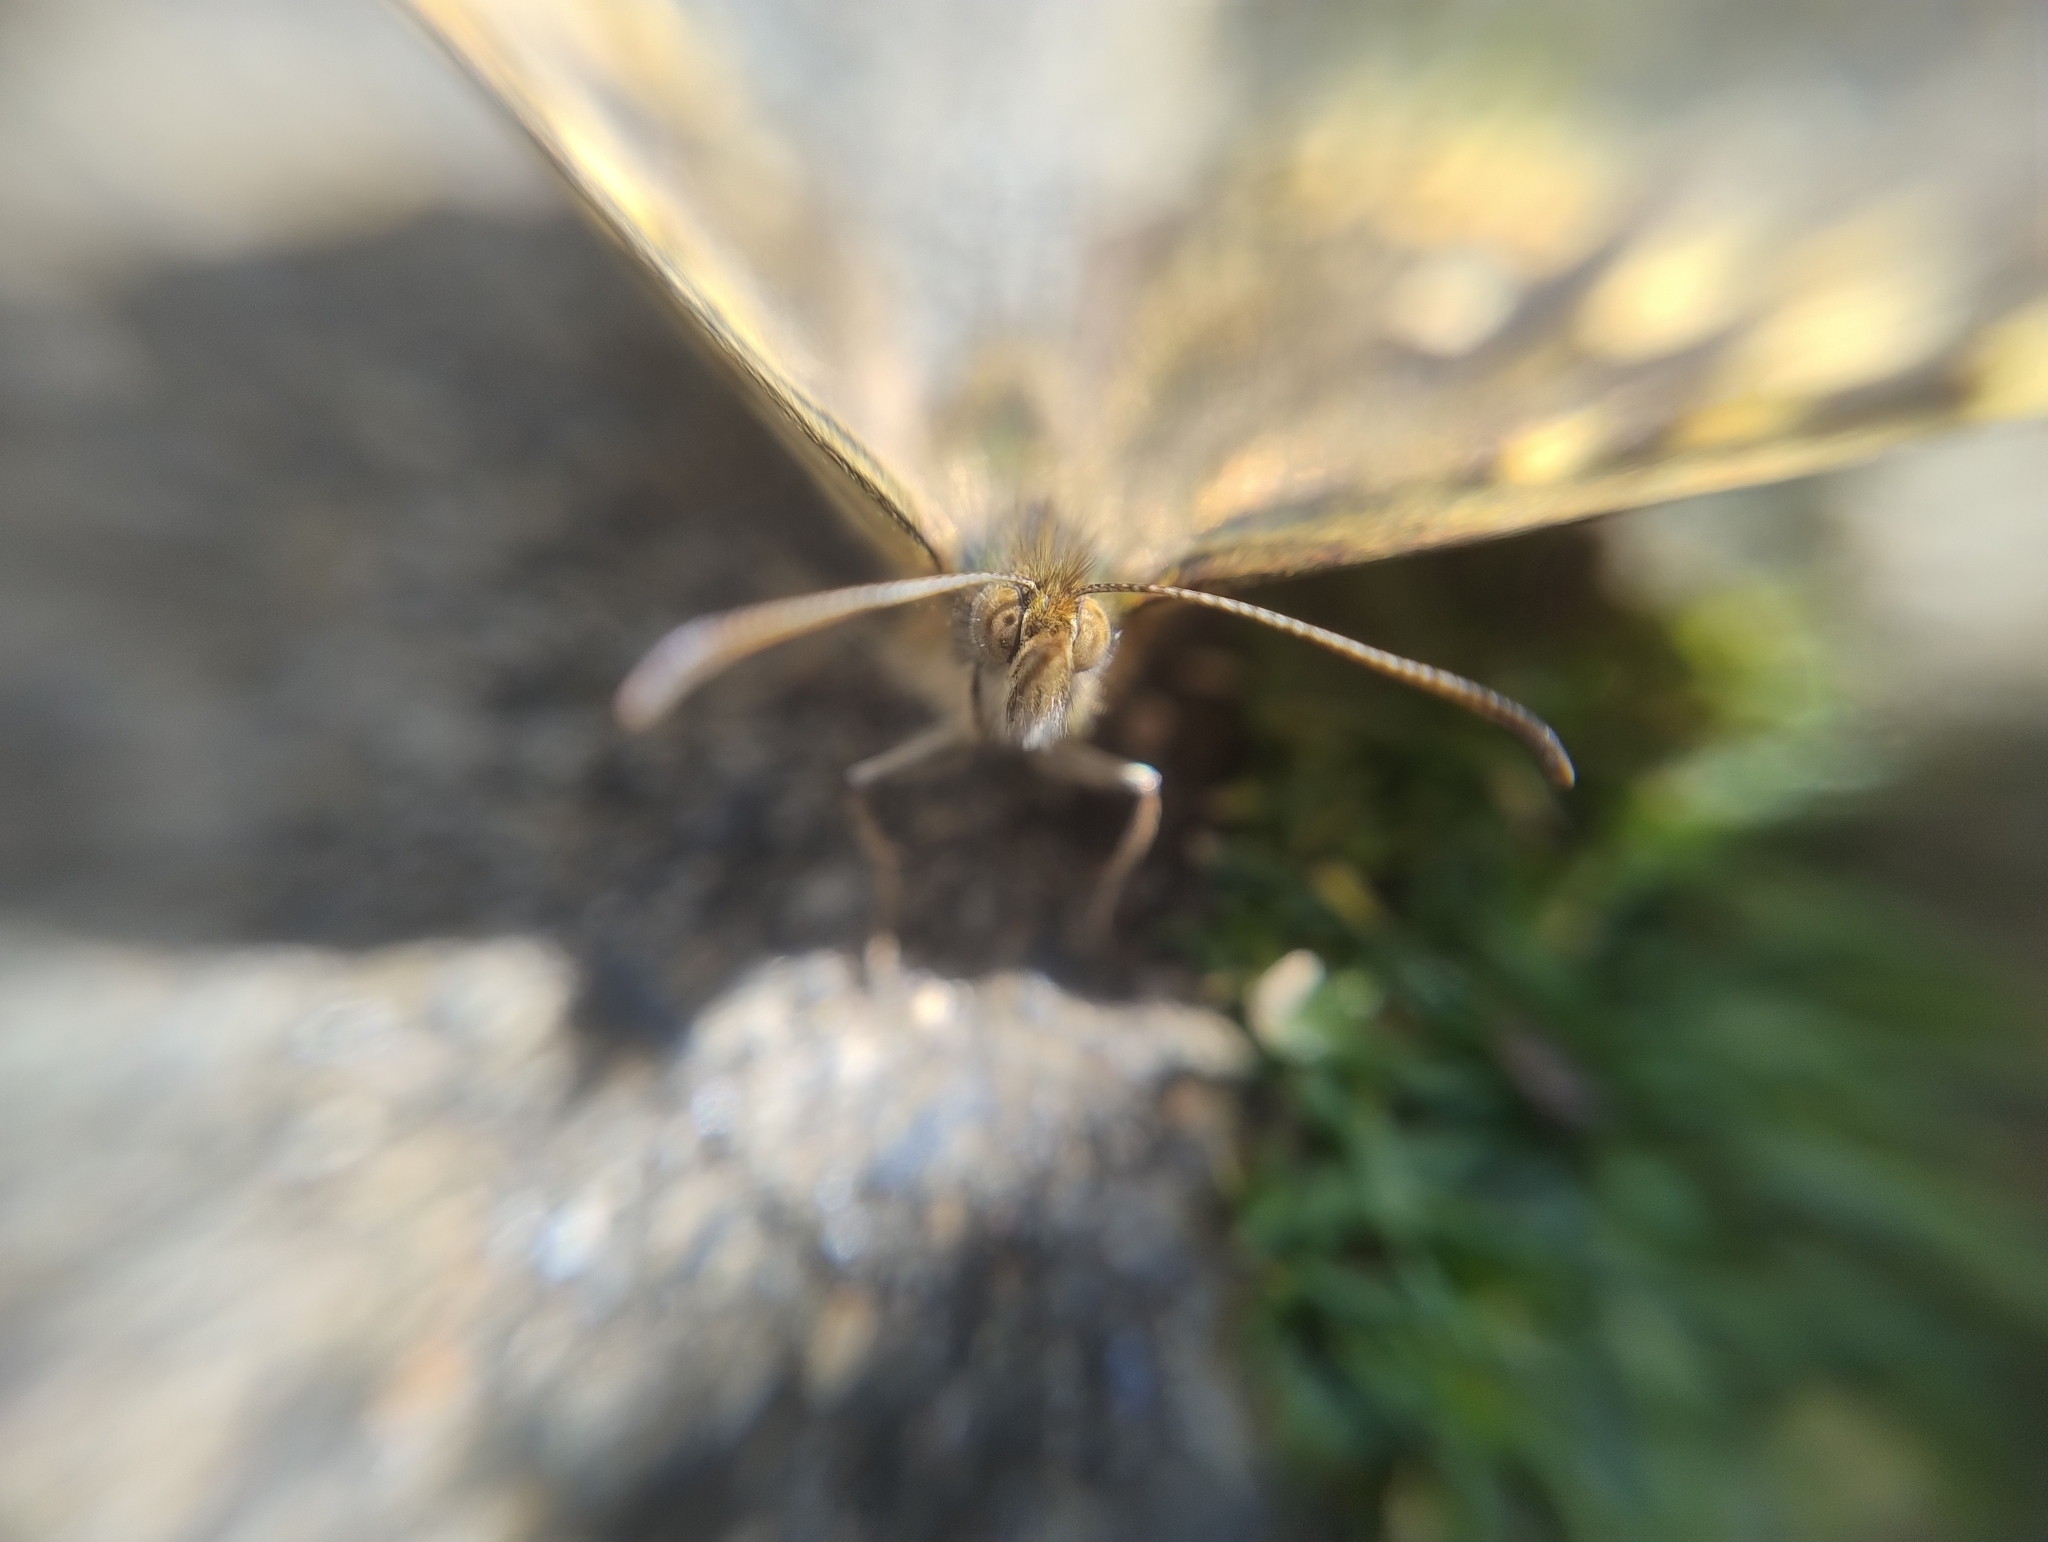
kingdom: Animalia
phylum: Arthropoda
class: Insecta
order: Lepidoptera
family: Nymphalidae
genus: Pararge
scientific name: Pararge aegeria
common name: Speckled wood
